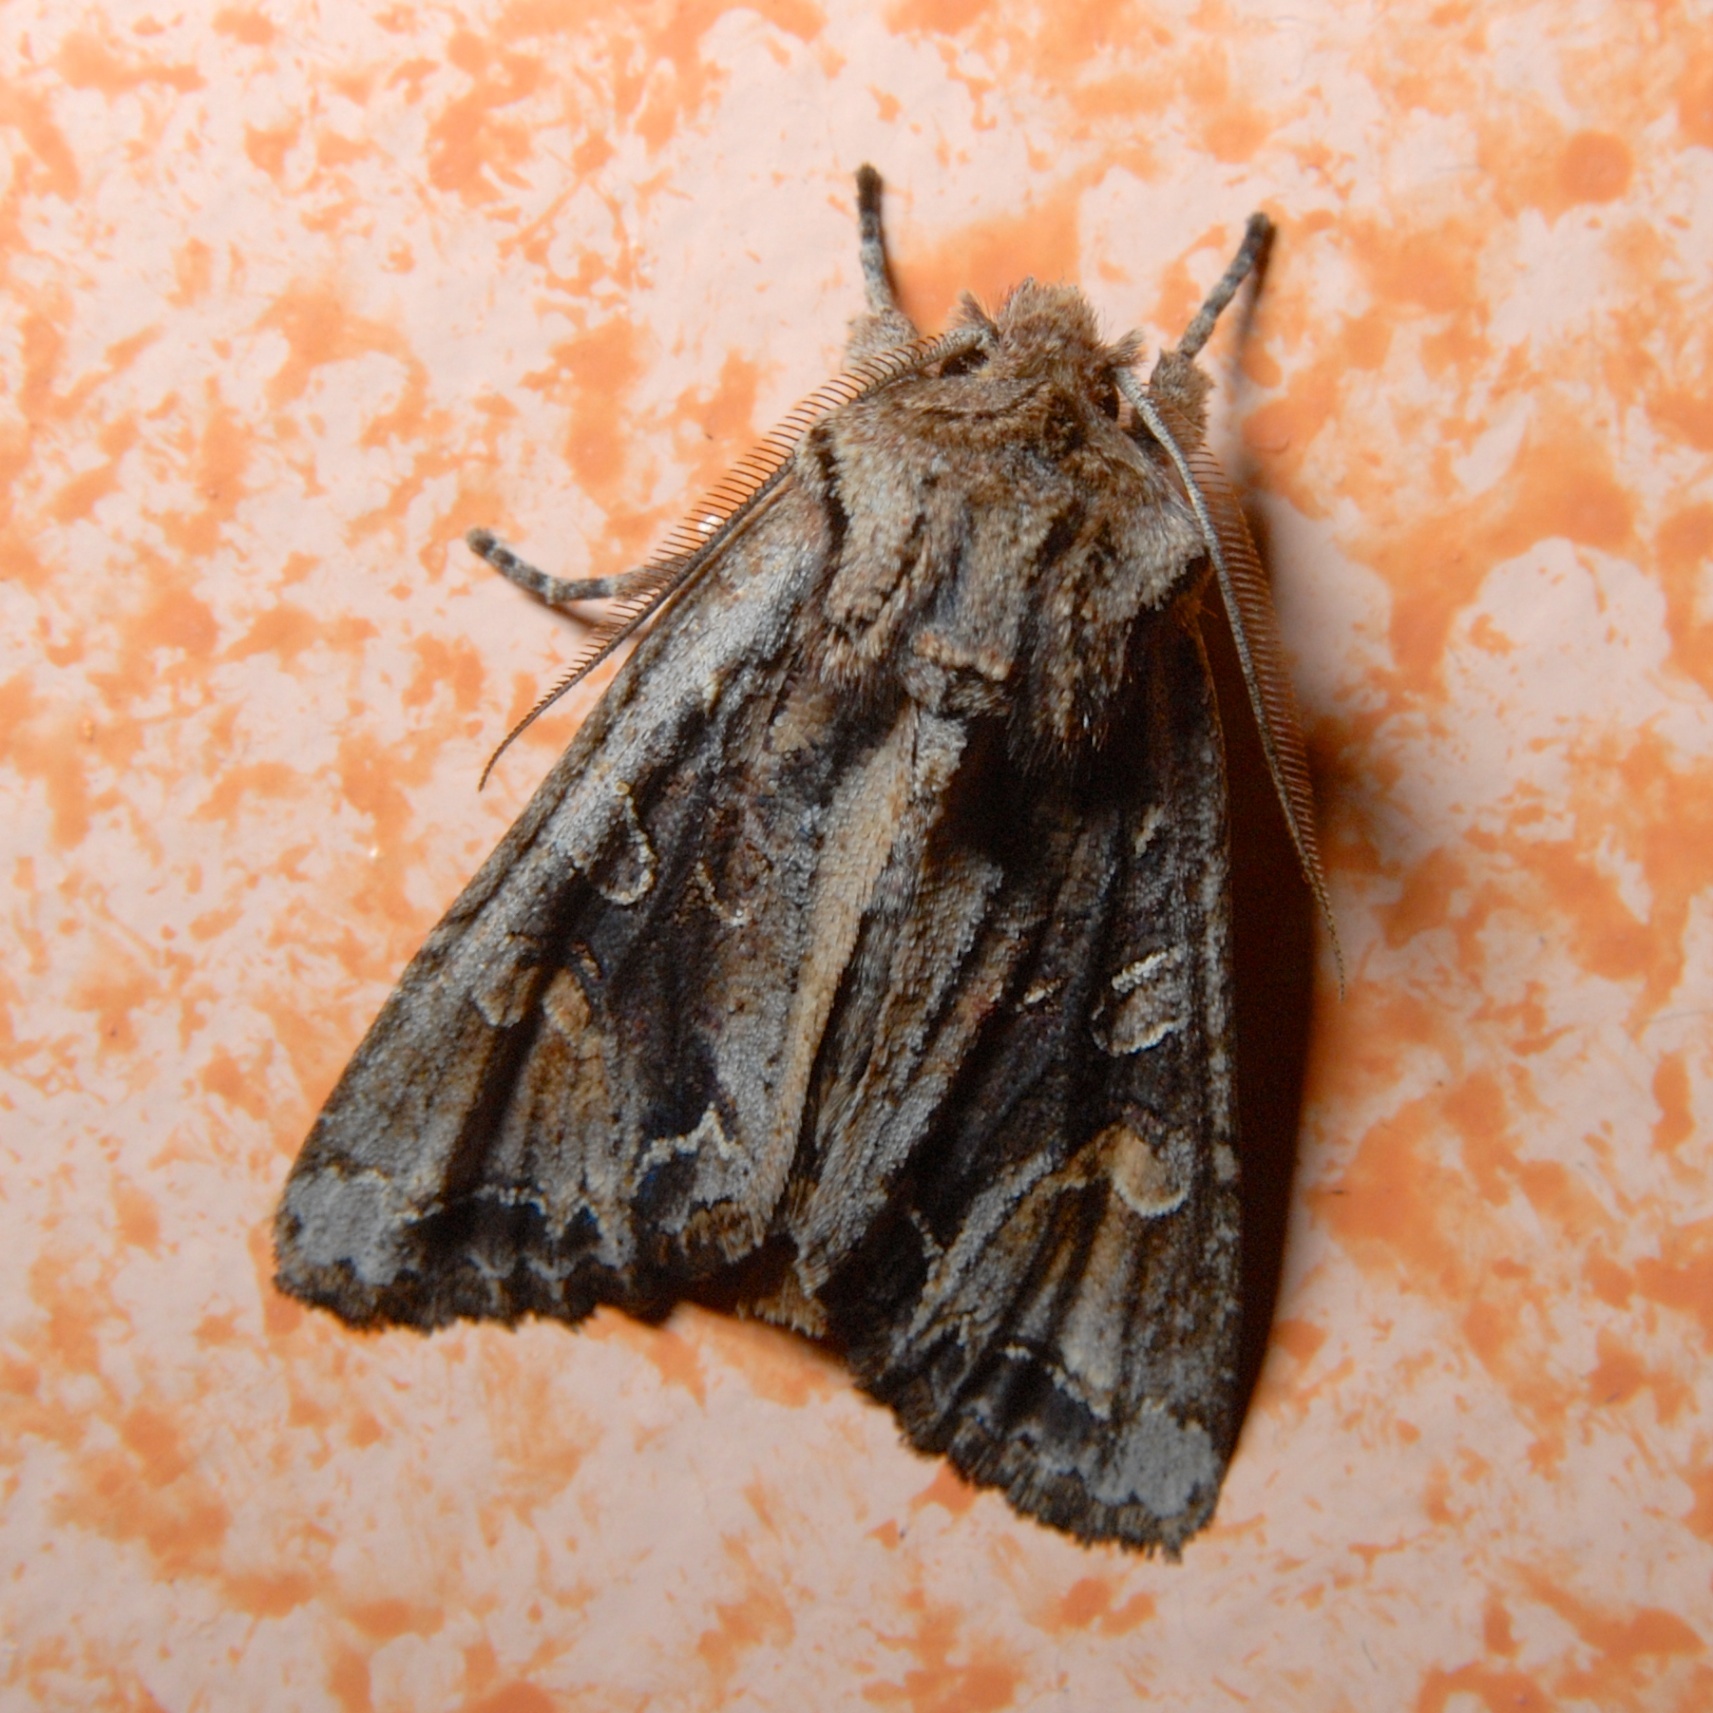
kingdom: Animalia
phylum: Arthropoda
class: Insecta
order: Lepidoptera
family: Noctuidae
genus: Ichneutica
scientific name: Ichneutica insignis
